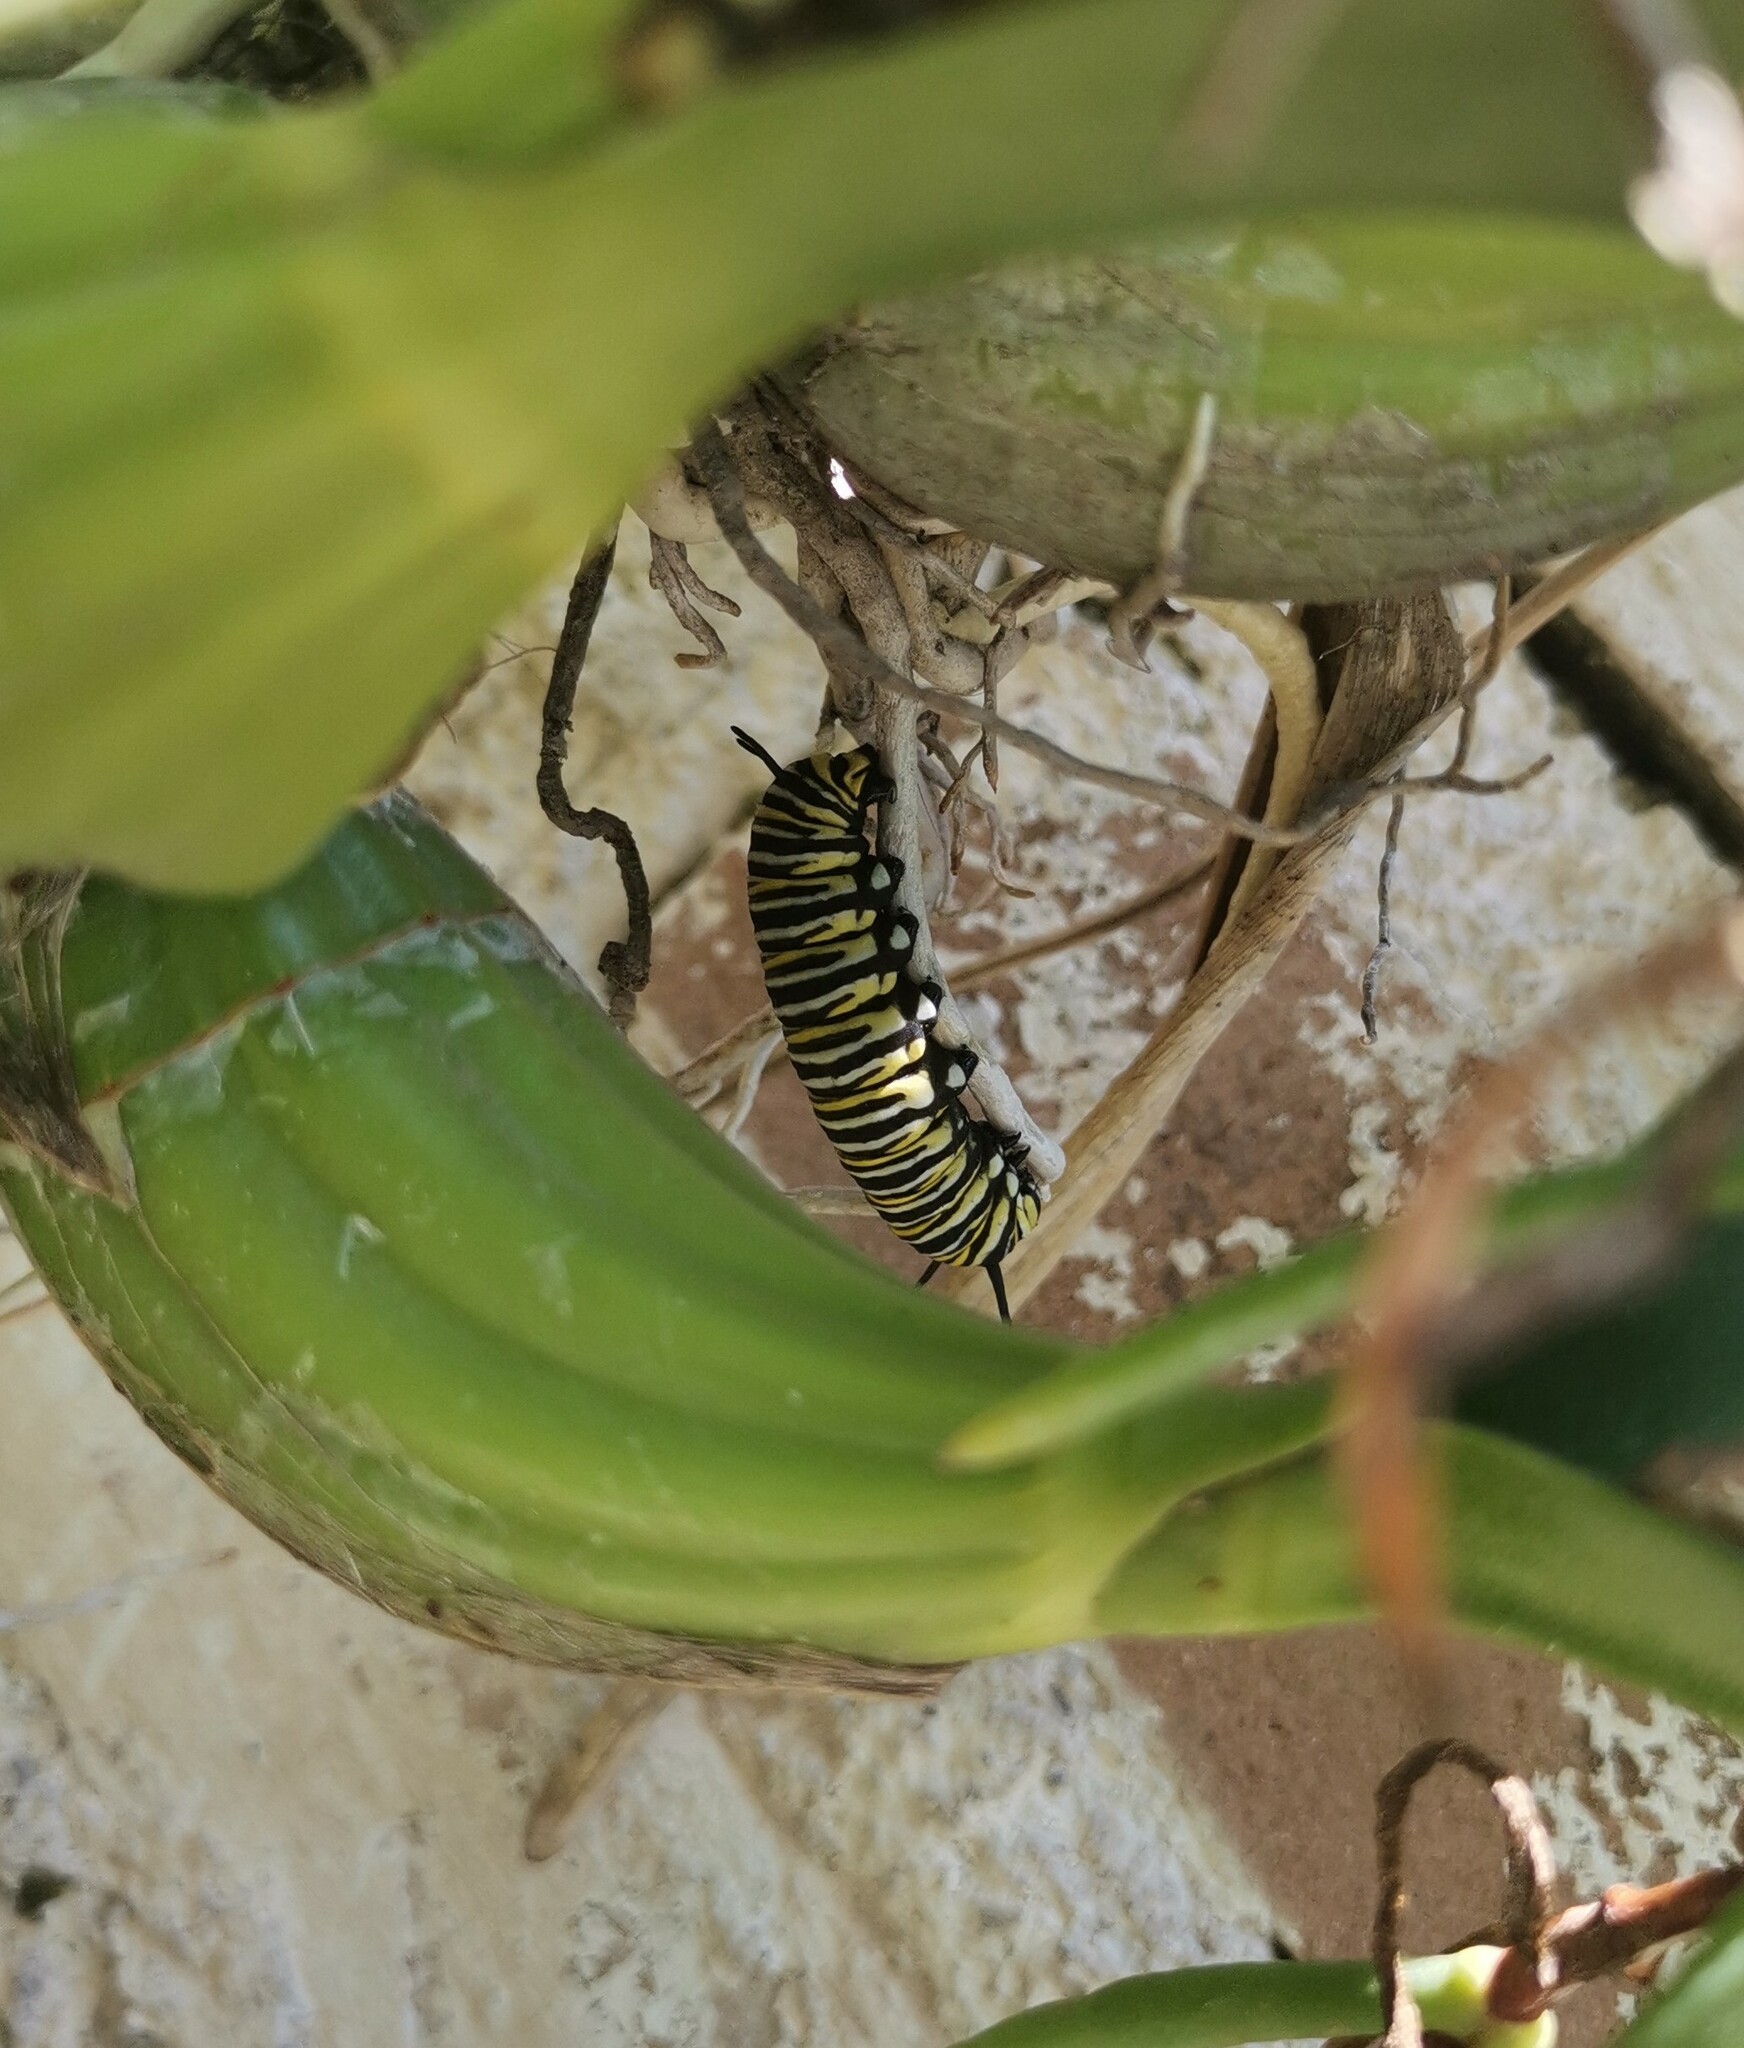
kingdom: Animalia
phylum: Arthropoda
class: Insecta
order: Lepidoptera
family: Nymphalidae
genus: Danaus
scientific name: Danaus plexippus
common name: Monarch
